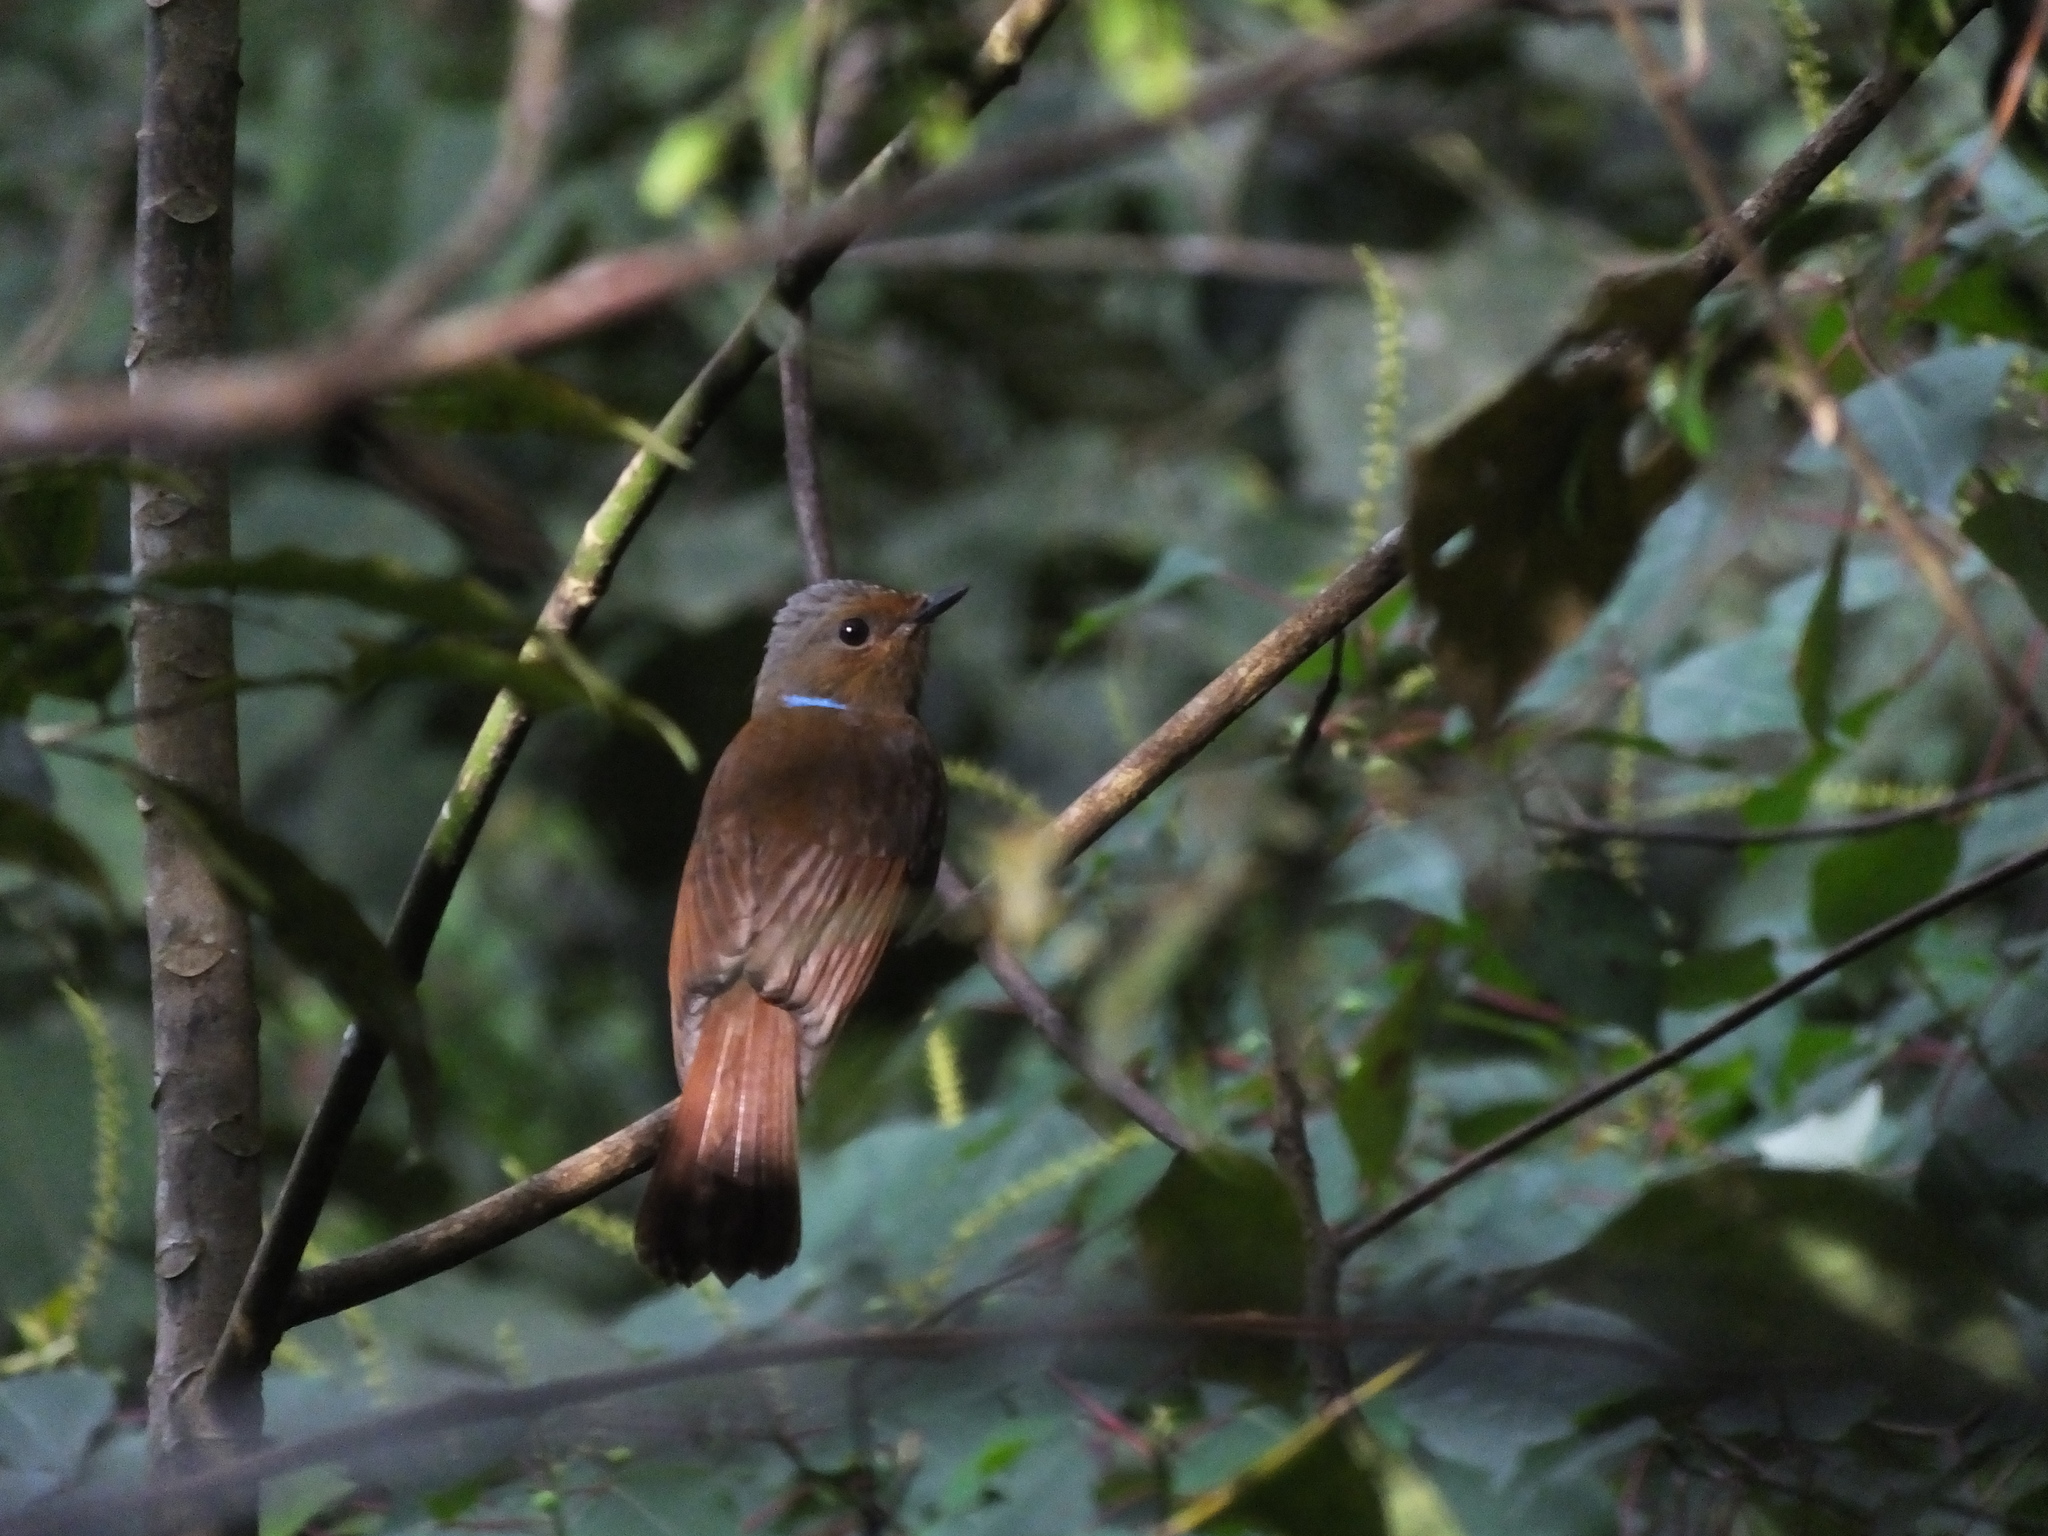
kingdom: Animalia
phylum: Chordata
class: Aves
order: Passeriformes
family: Muscicapidae
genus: Niltava
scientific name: Niltava grandis
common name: Large niltava
